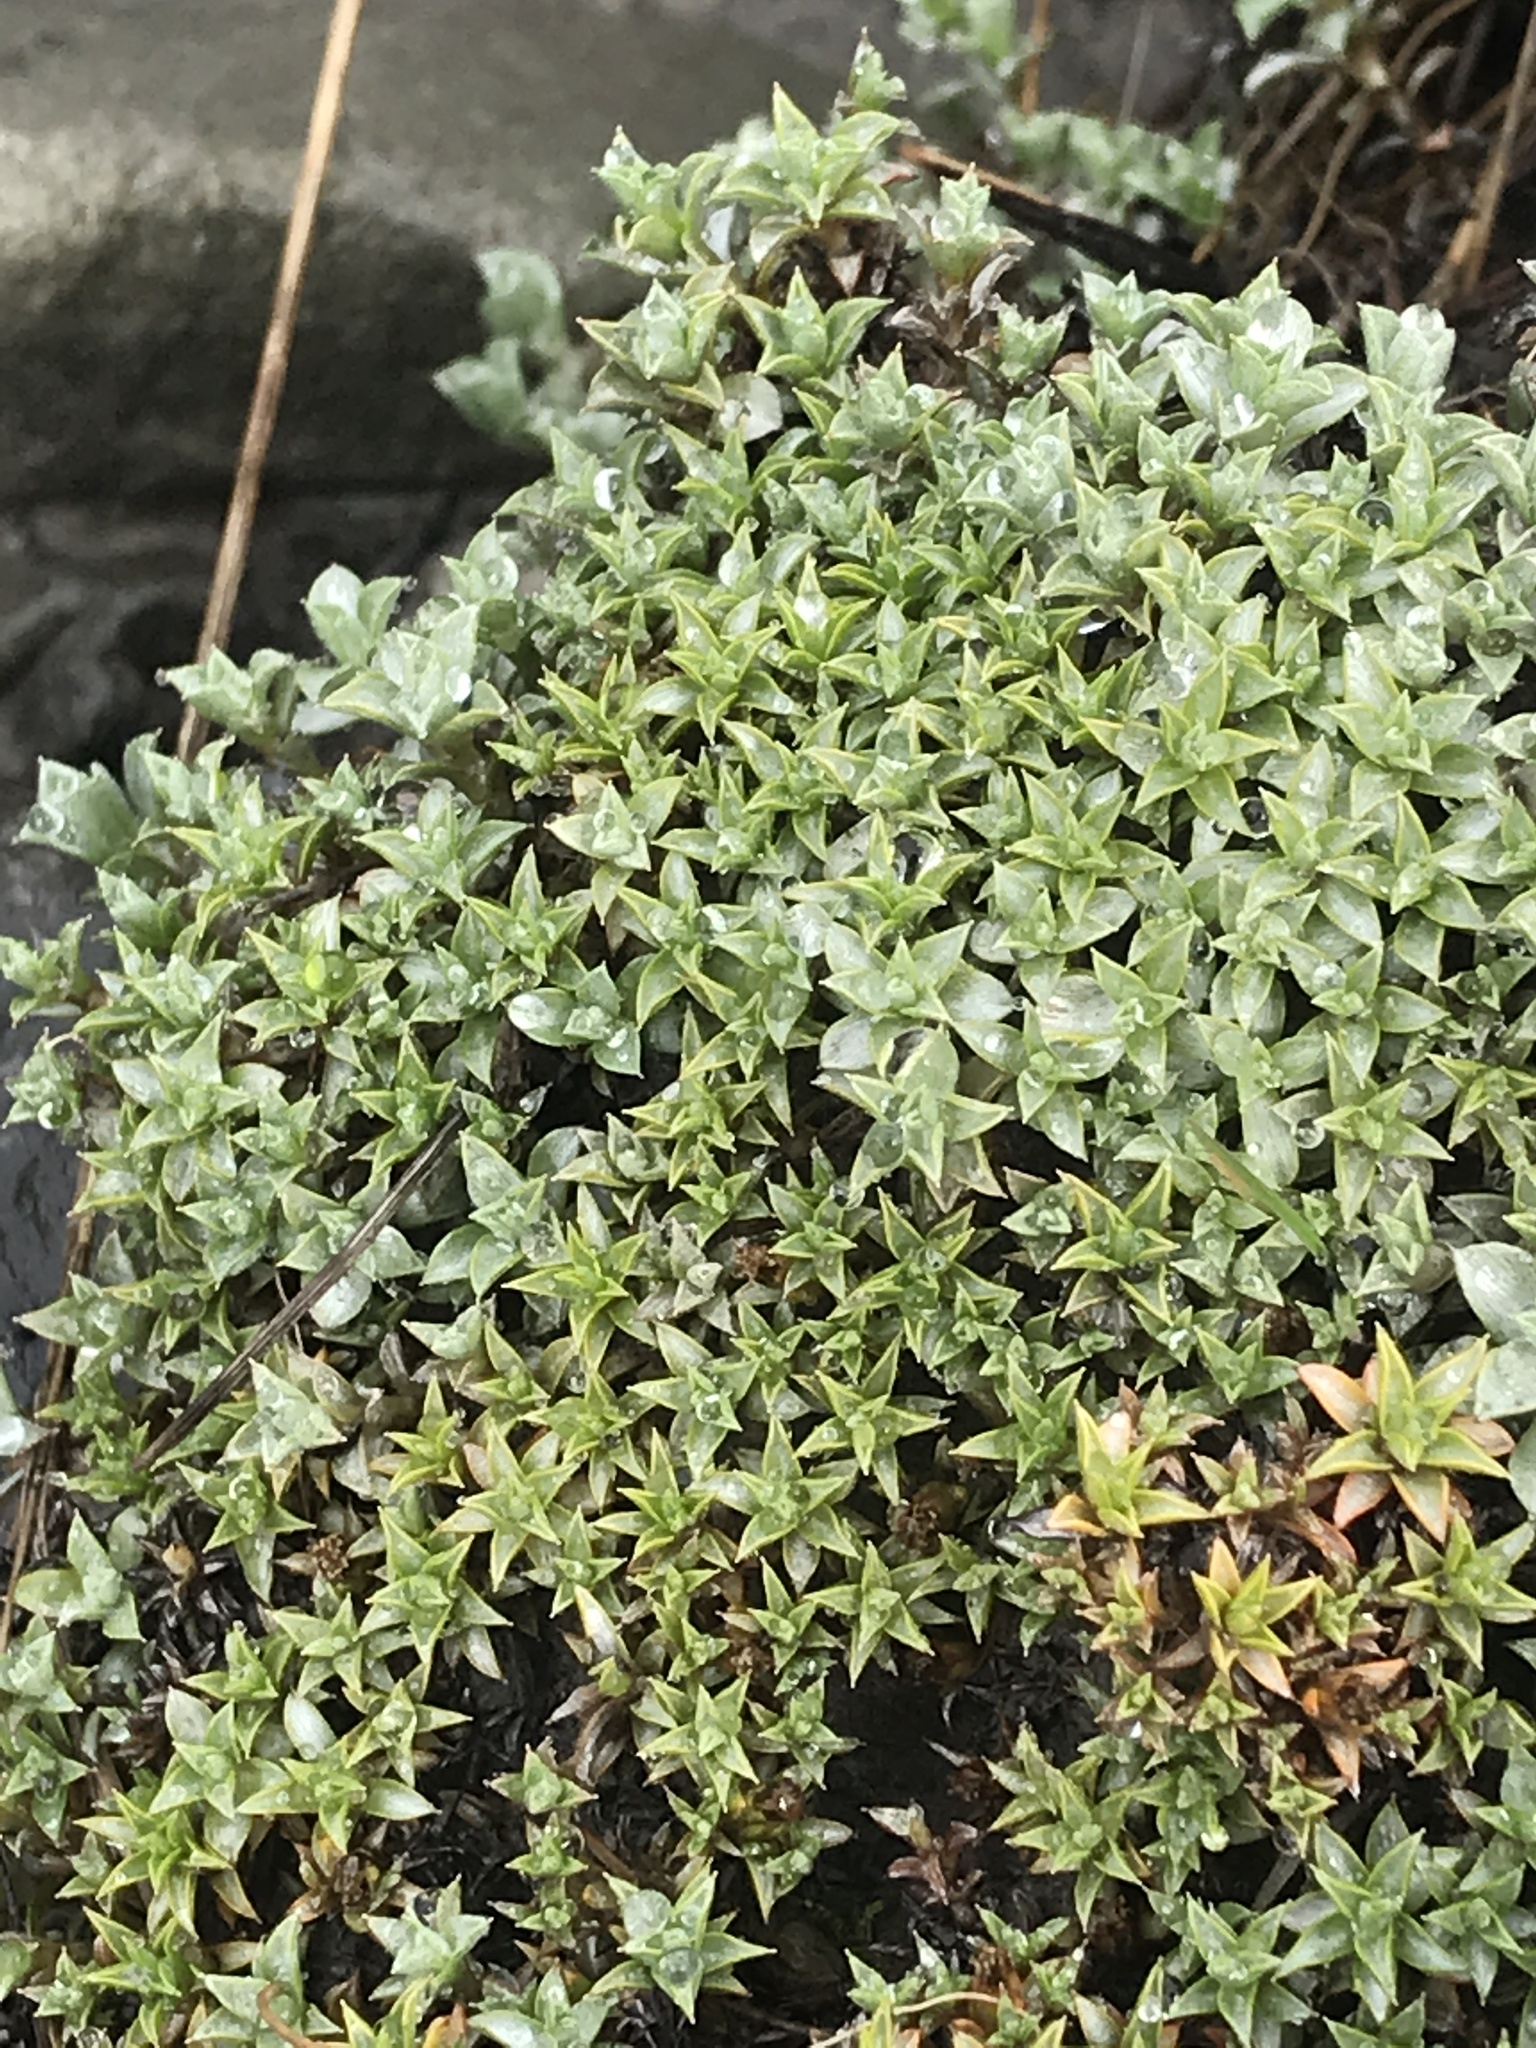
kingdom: Plantae
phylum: Tracheophyta
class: Magnoliopsida
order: Asterales
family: Asteraceae
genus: Raoulia
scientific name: Raoulia tenuicaulis
